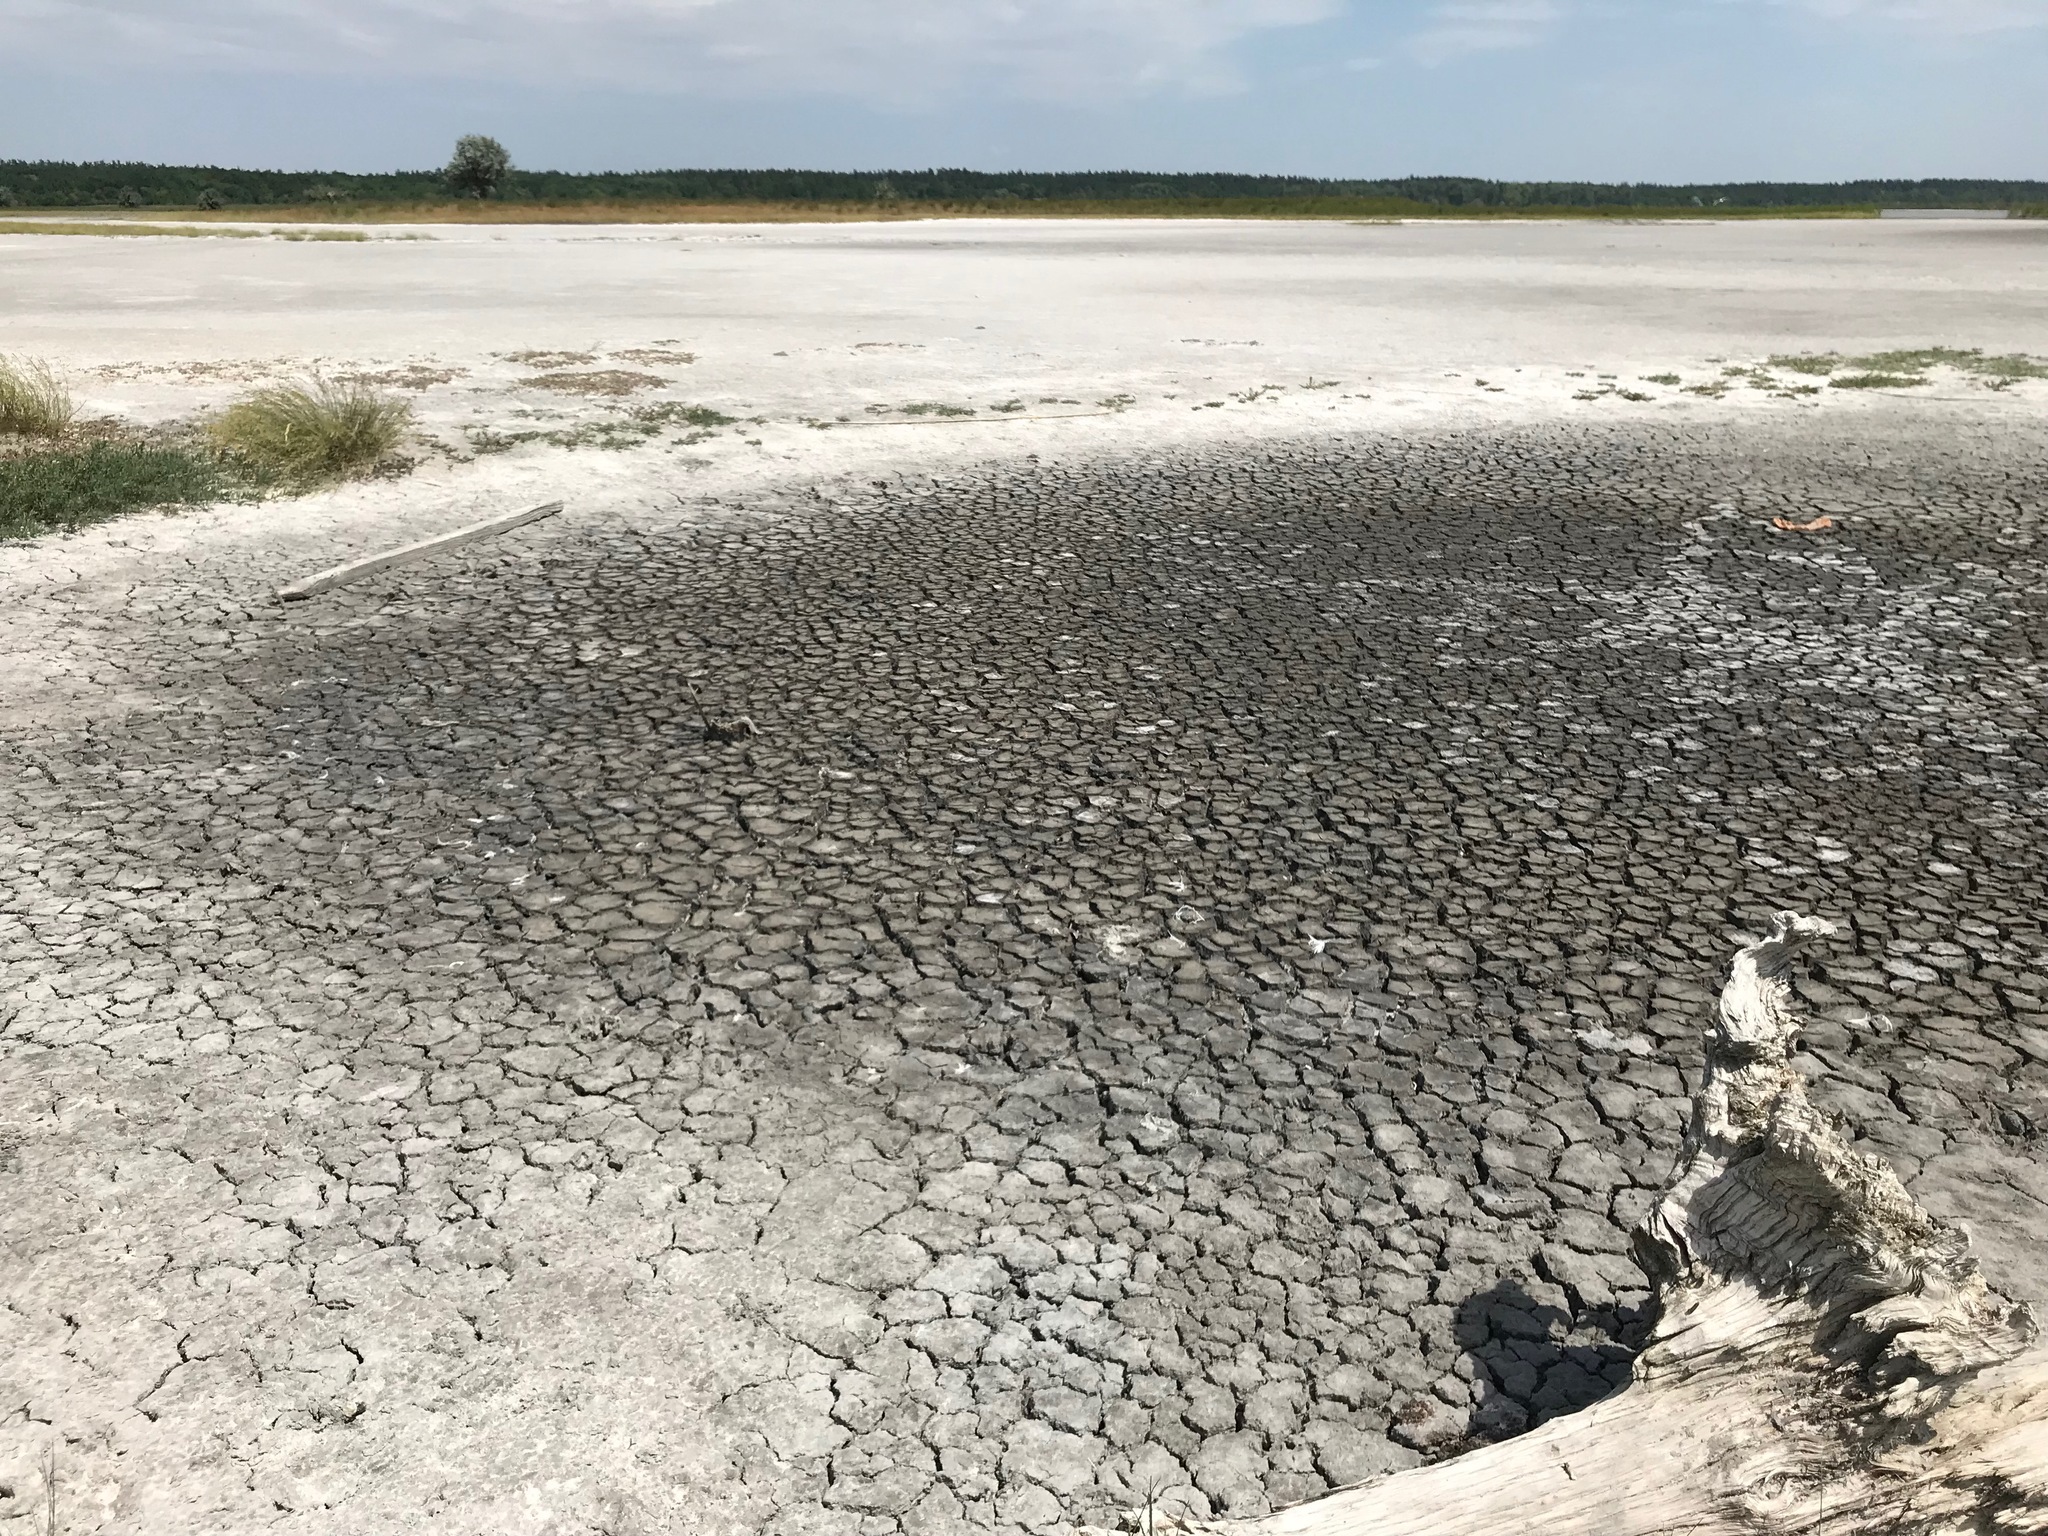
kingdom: Animalia
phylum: Arthropoda
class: Insecta
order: Coleoptera
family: Carabidae
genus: Cephalota
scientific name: Cephalota chiloleuca
